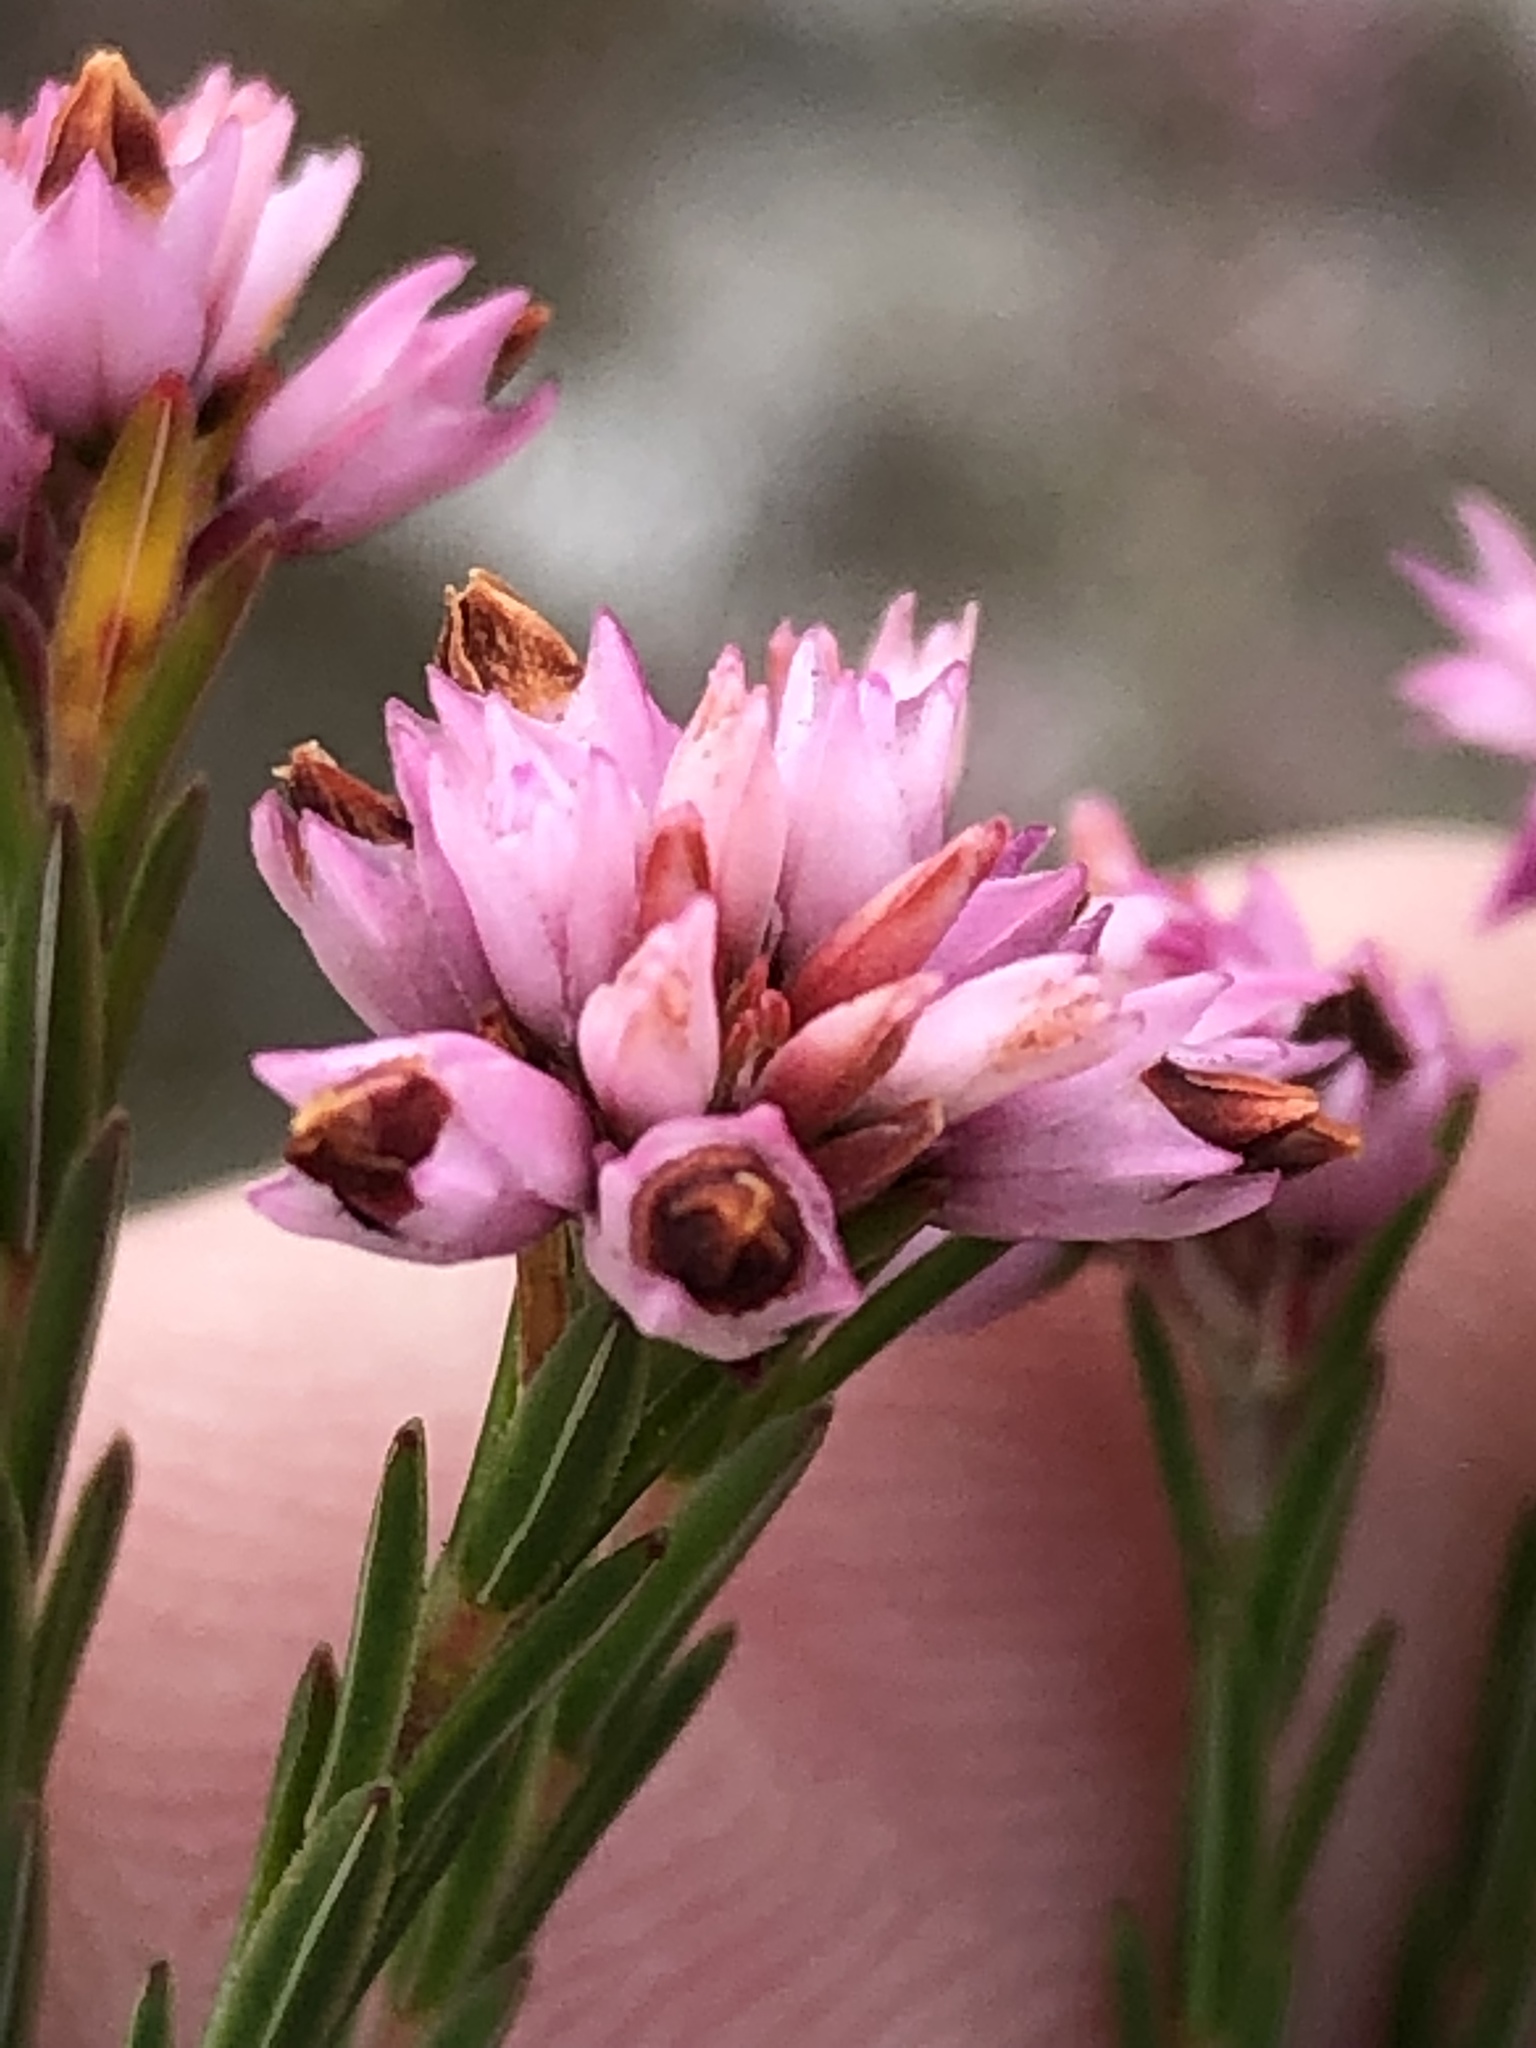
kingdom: Plantae
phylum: Tracheophyta
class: Magnoliopsida
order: Ericales
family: Ericaceae
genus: Erica
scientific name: Erica articularis
